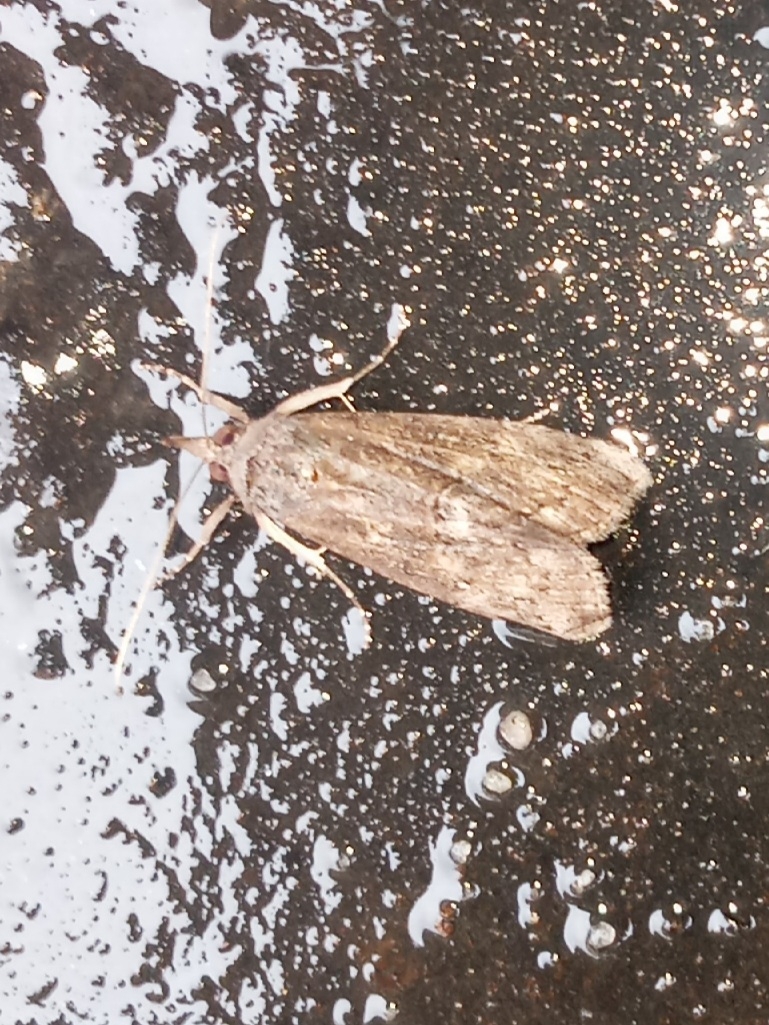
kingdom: Animalia
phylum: Arthropoda
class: Insecta
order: Lepidoptera
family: Erebidae
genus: Hypena
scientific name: Hypena scabra
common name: Green cloverworm
